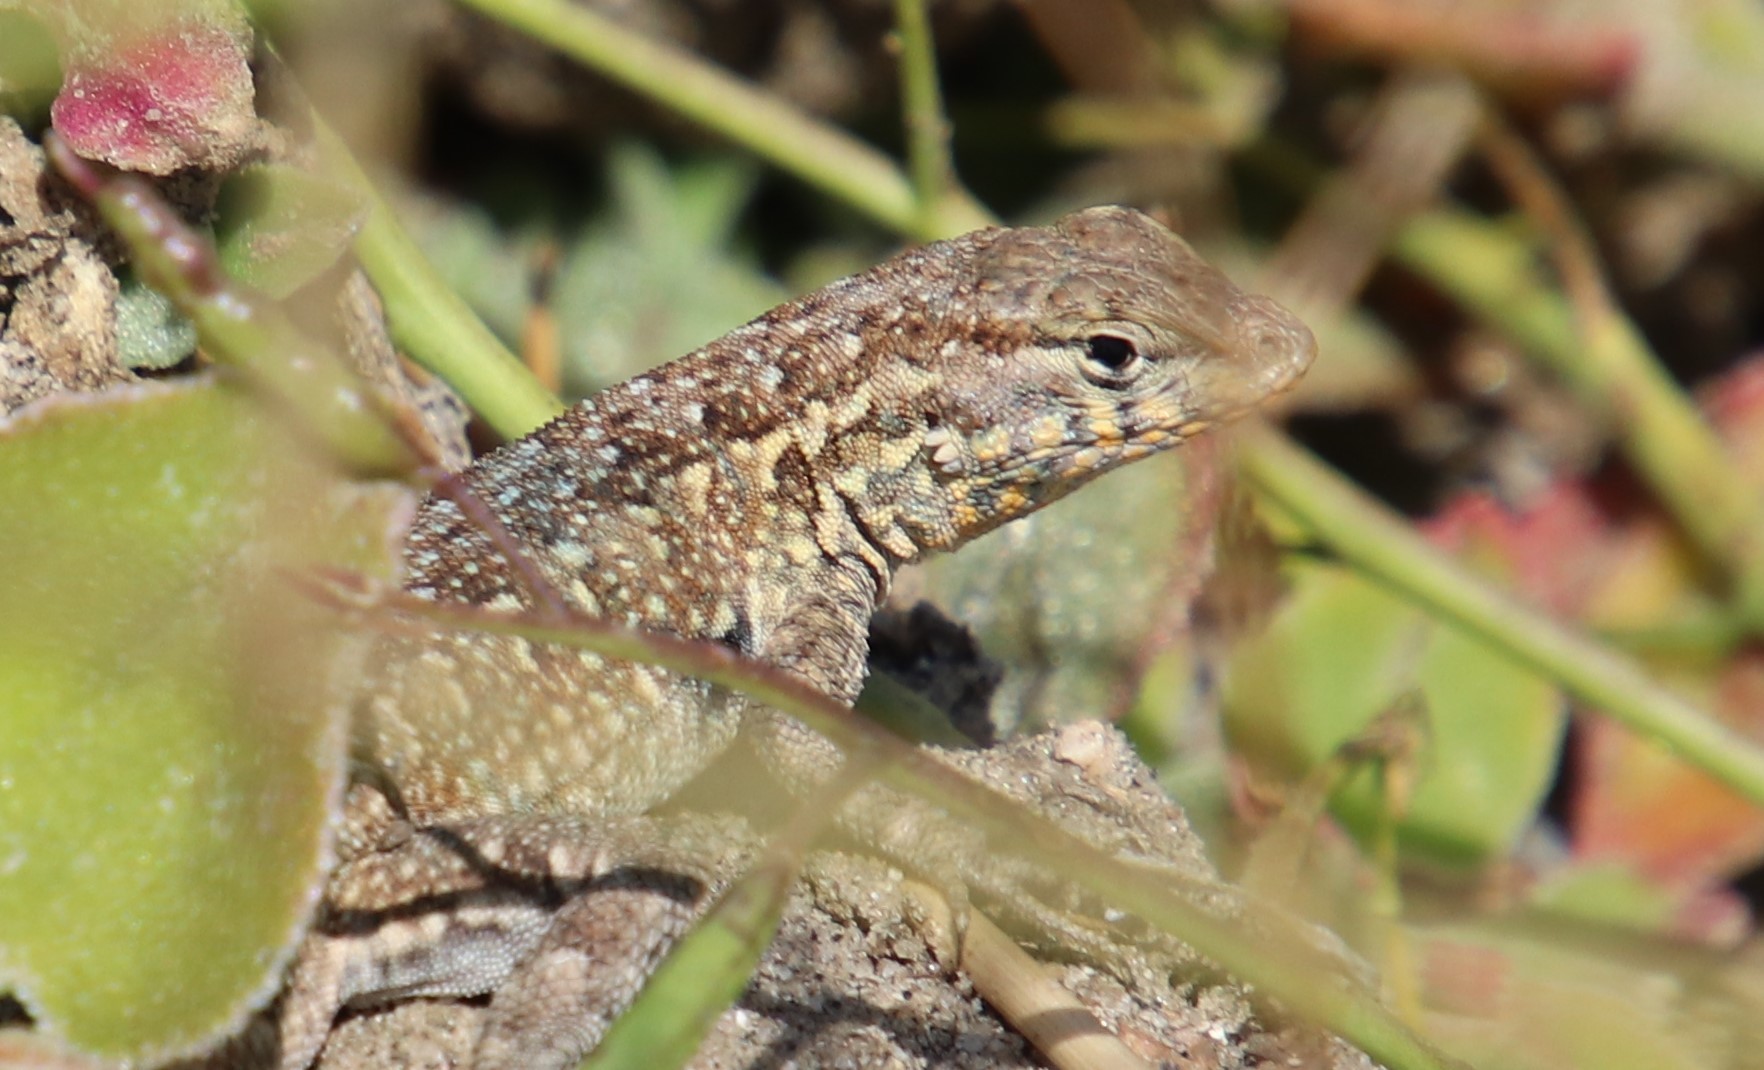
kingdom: Animalia
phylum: Chordata
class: Squamata
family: Phrynosomatidae
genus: Uta
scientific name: Uta stansburiana
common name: Side-blotched lizard
